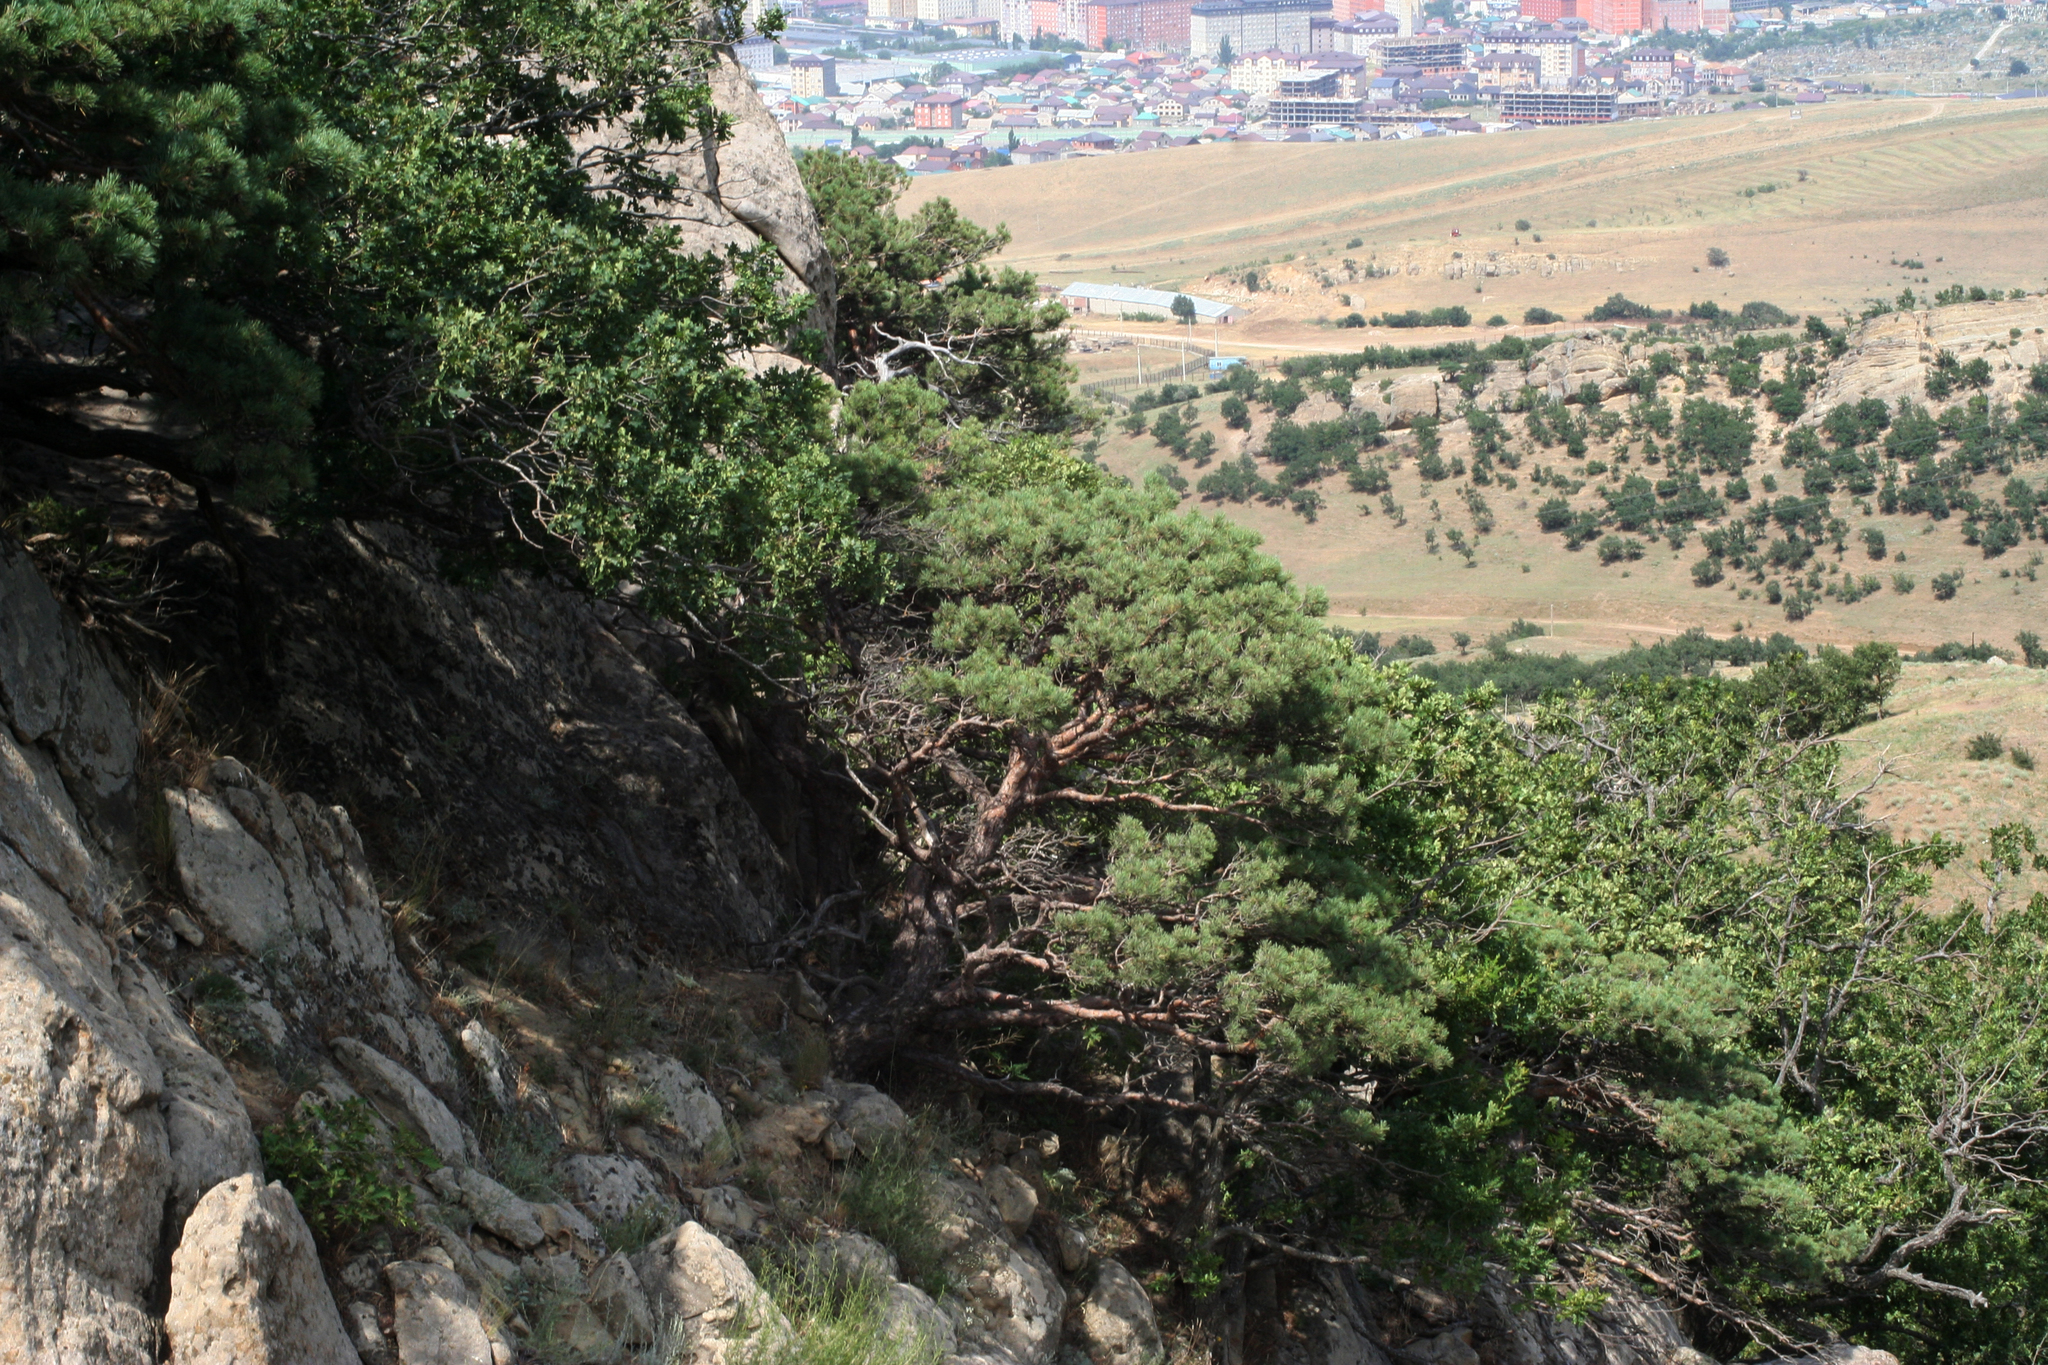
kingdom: Plantae
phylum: Tracheophyta
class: Pinopsida
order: Pinales
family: Pinaceae
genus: Pinus
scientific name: Pinus sylvestris
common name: Scots pine
